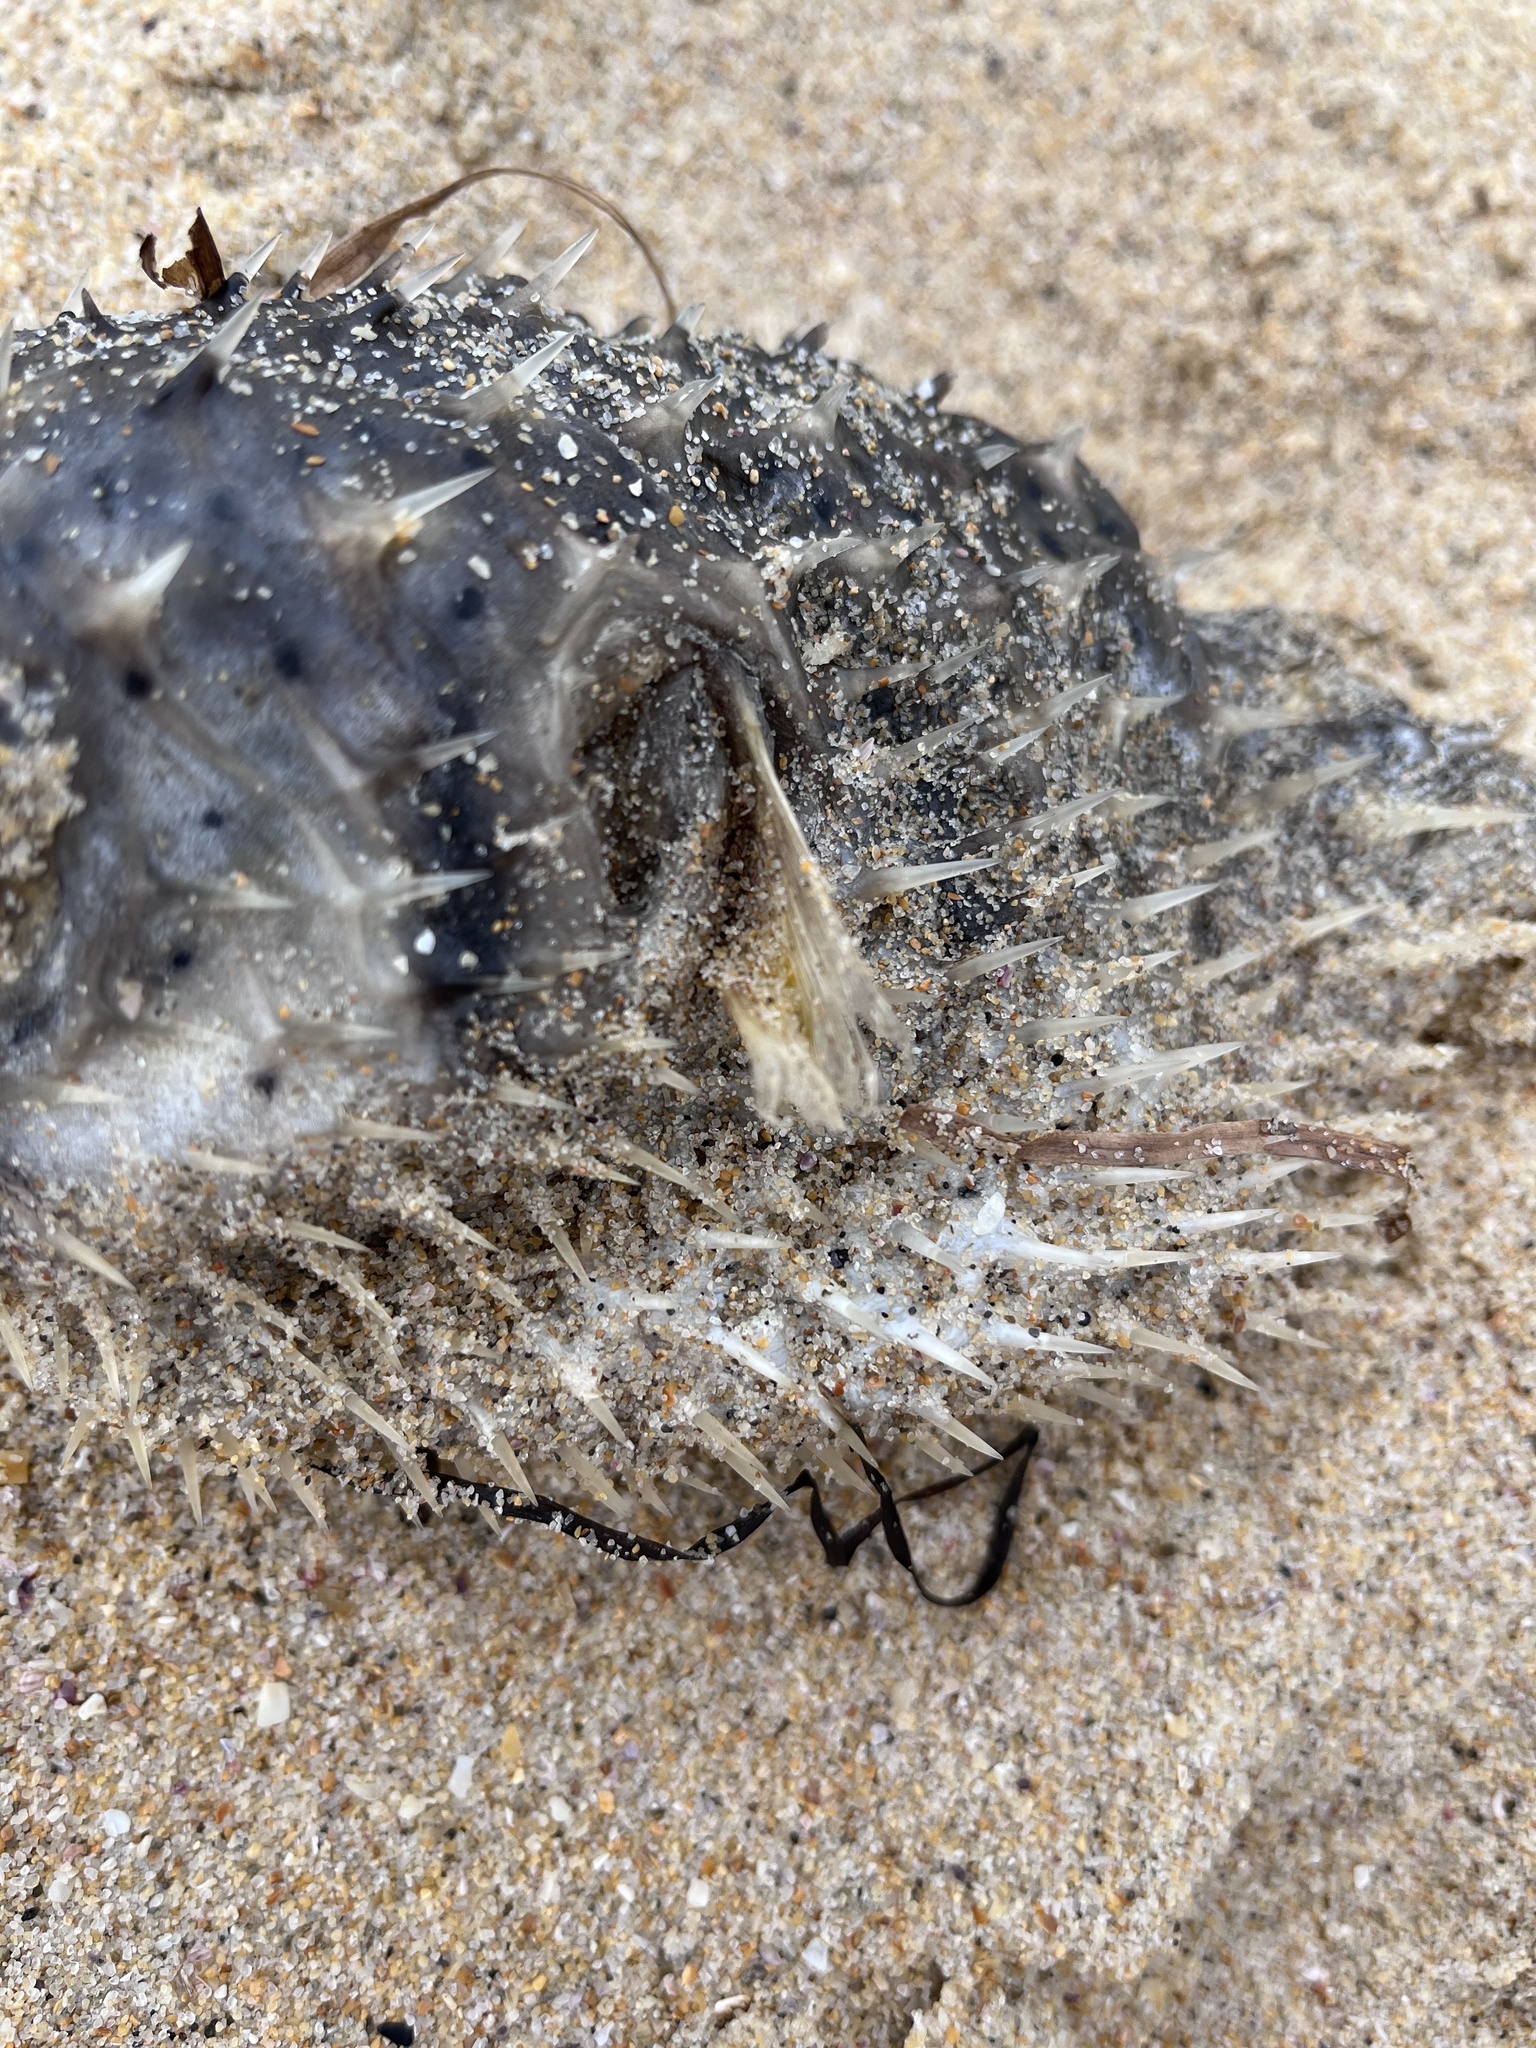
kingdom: Animalia
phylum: Chordata
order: Tetraodontiformes
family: Diodontidae
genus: Dicotylichthys
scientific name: Dicotylichthys punctulatus
